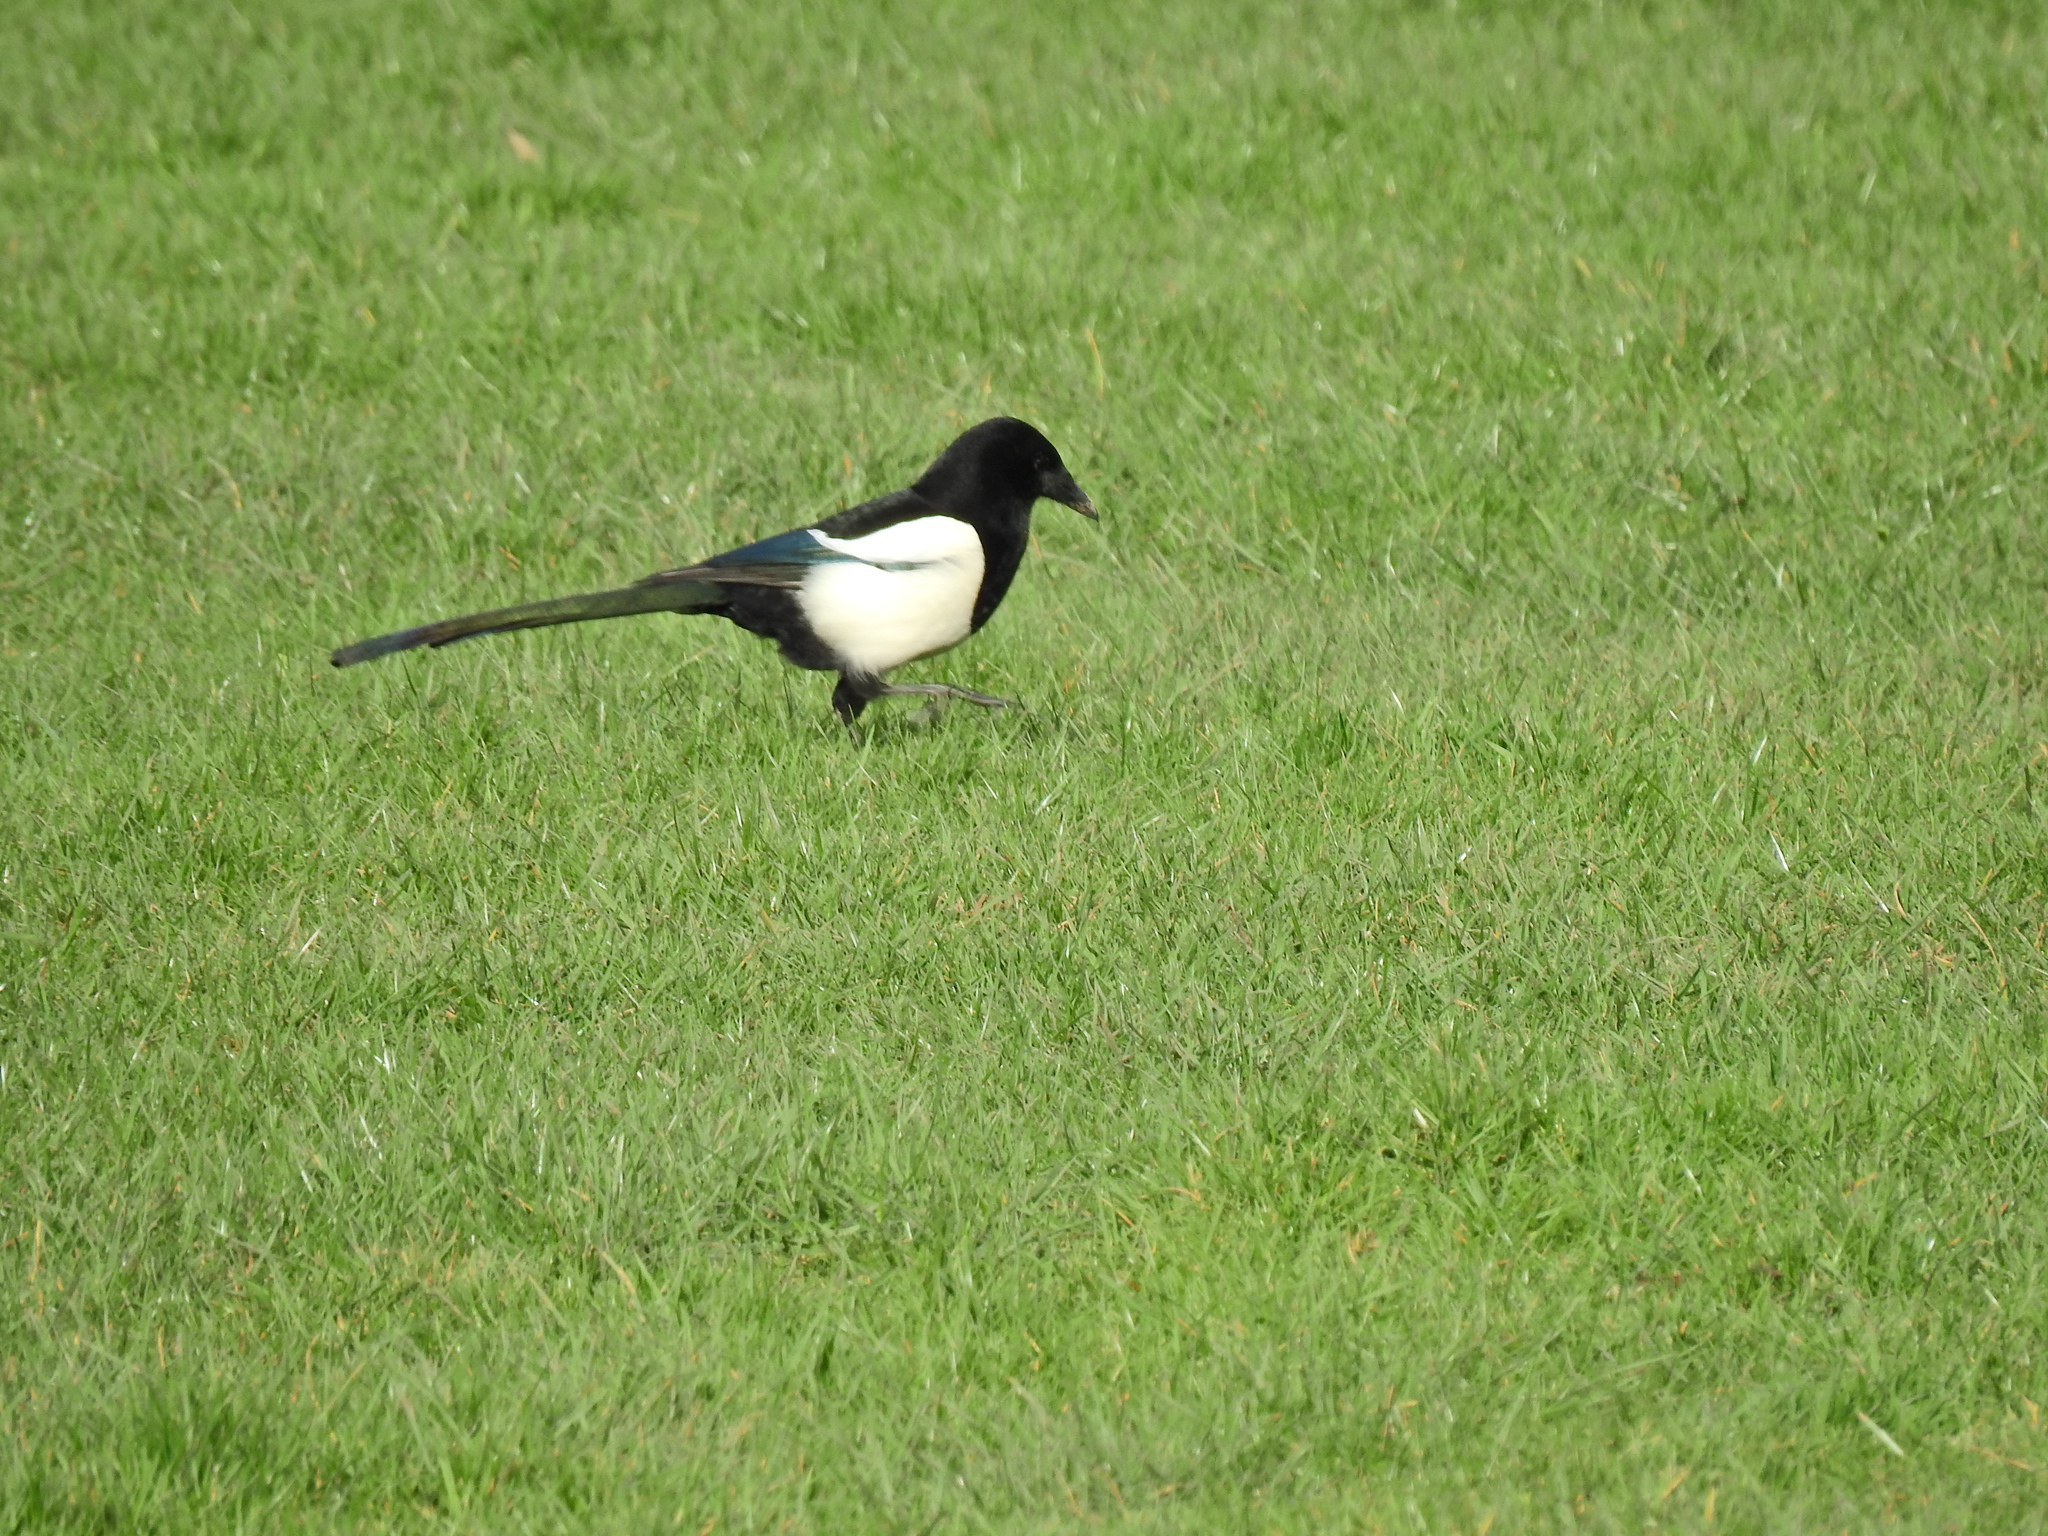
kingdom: Animalia
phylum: Chordata
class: Aves
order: Passeriformes
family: Corvidae
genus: Pica
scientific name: Pica pica
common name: Eurasian magpie
